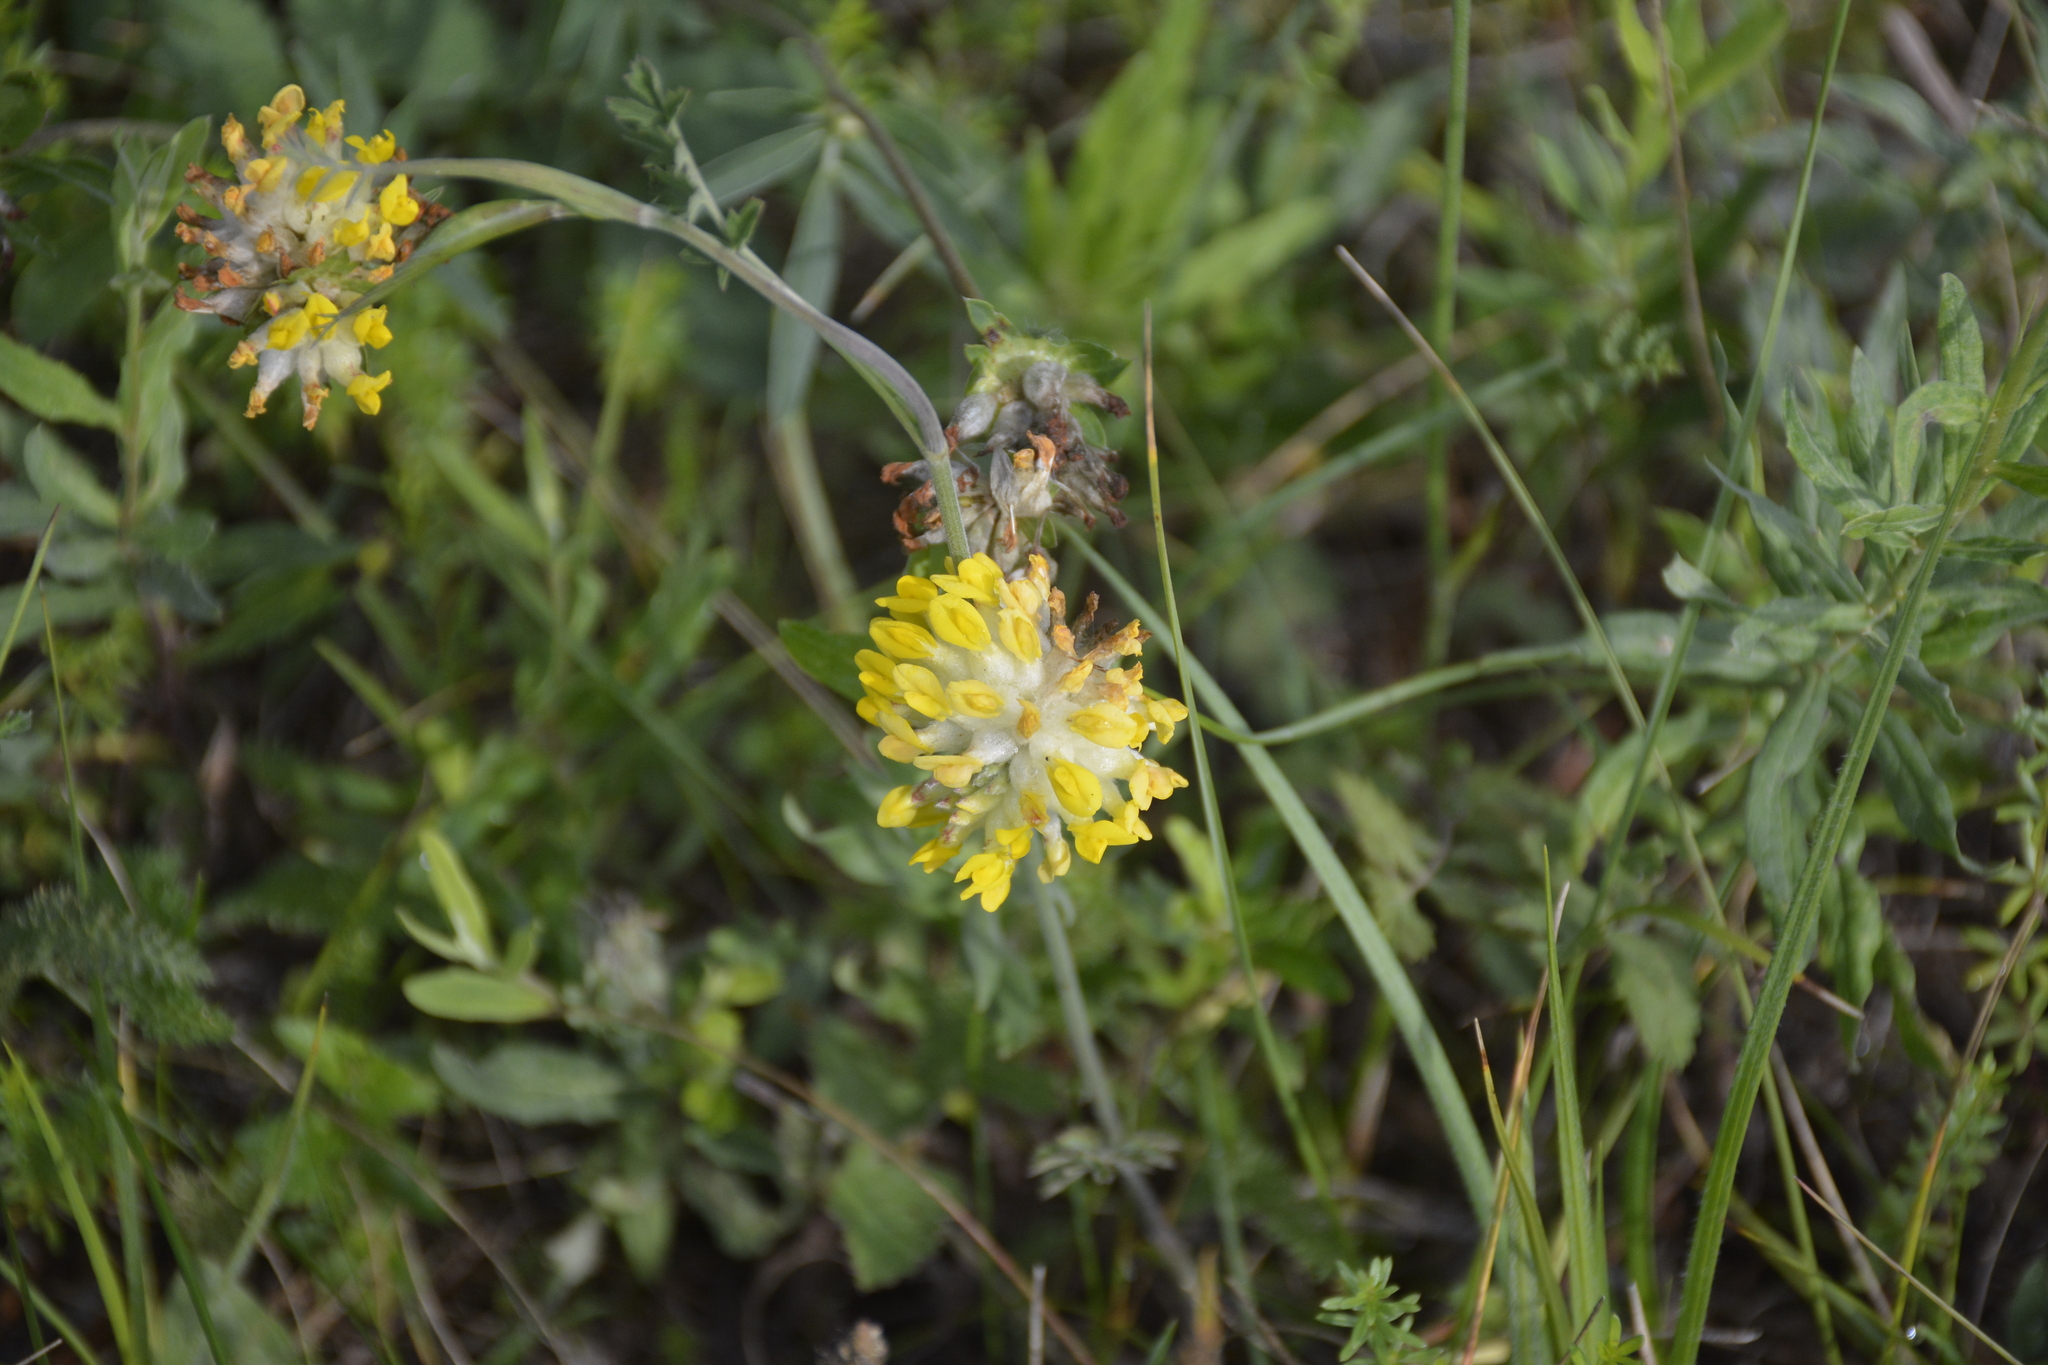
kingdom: Plantae
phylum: Tracheophyta
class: Magnoliopsida
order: Fabales
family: Fabaceae
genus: Anthyllis
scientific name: Anthyllis vulneraria
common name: Kidney vetch
